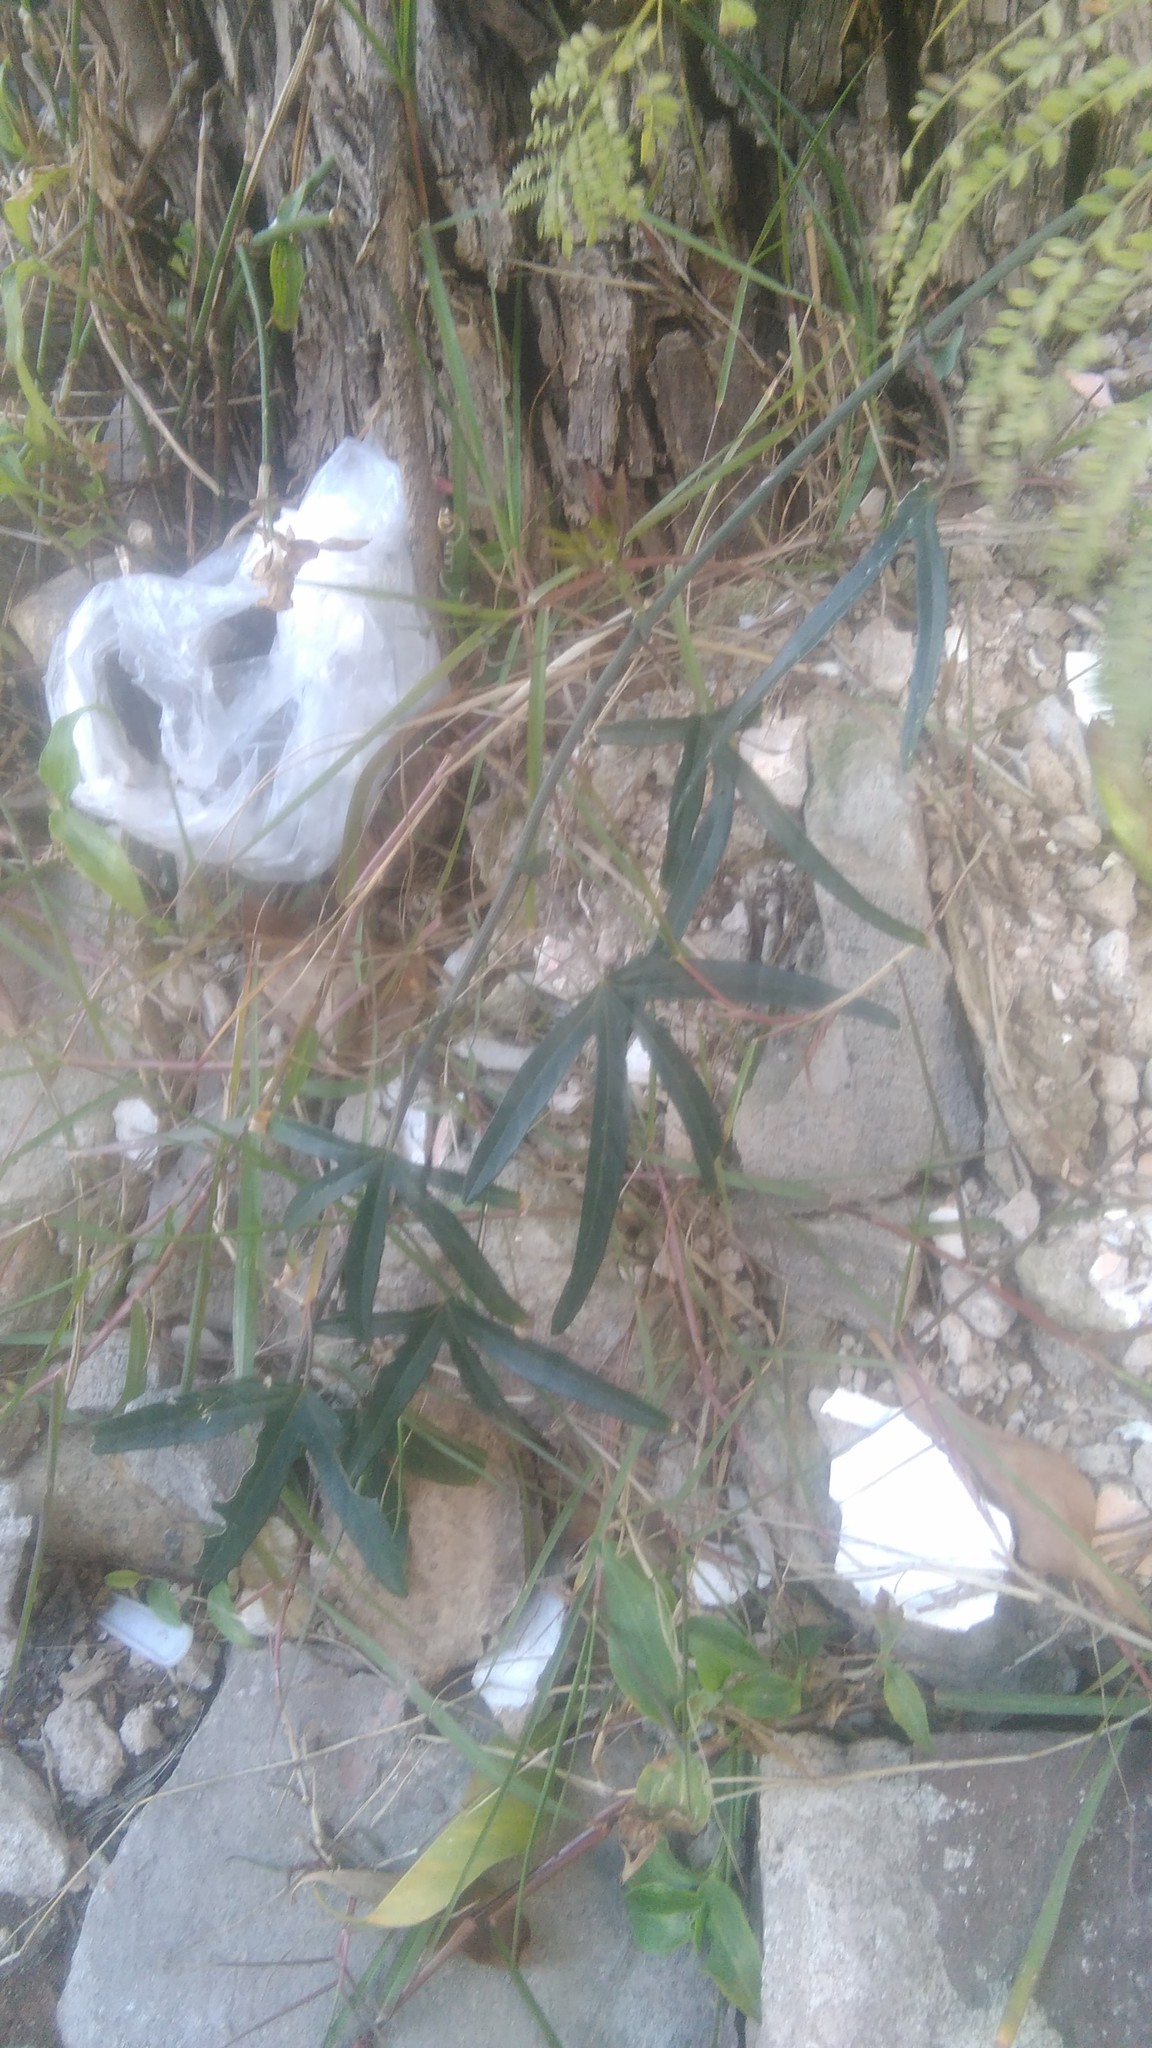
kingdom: Plantae
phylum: Tracheophyta
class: Magnoliopsida
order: Malpighiales
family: Passifloraceae
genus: Passiflora
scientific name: Passiflora caerulea
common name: Blue passionflower
